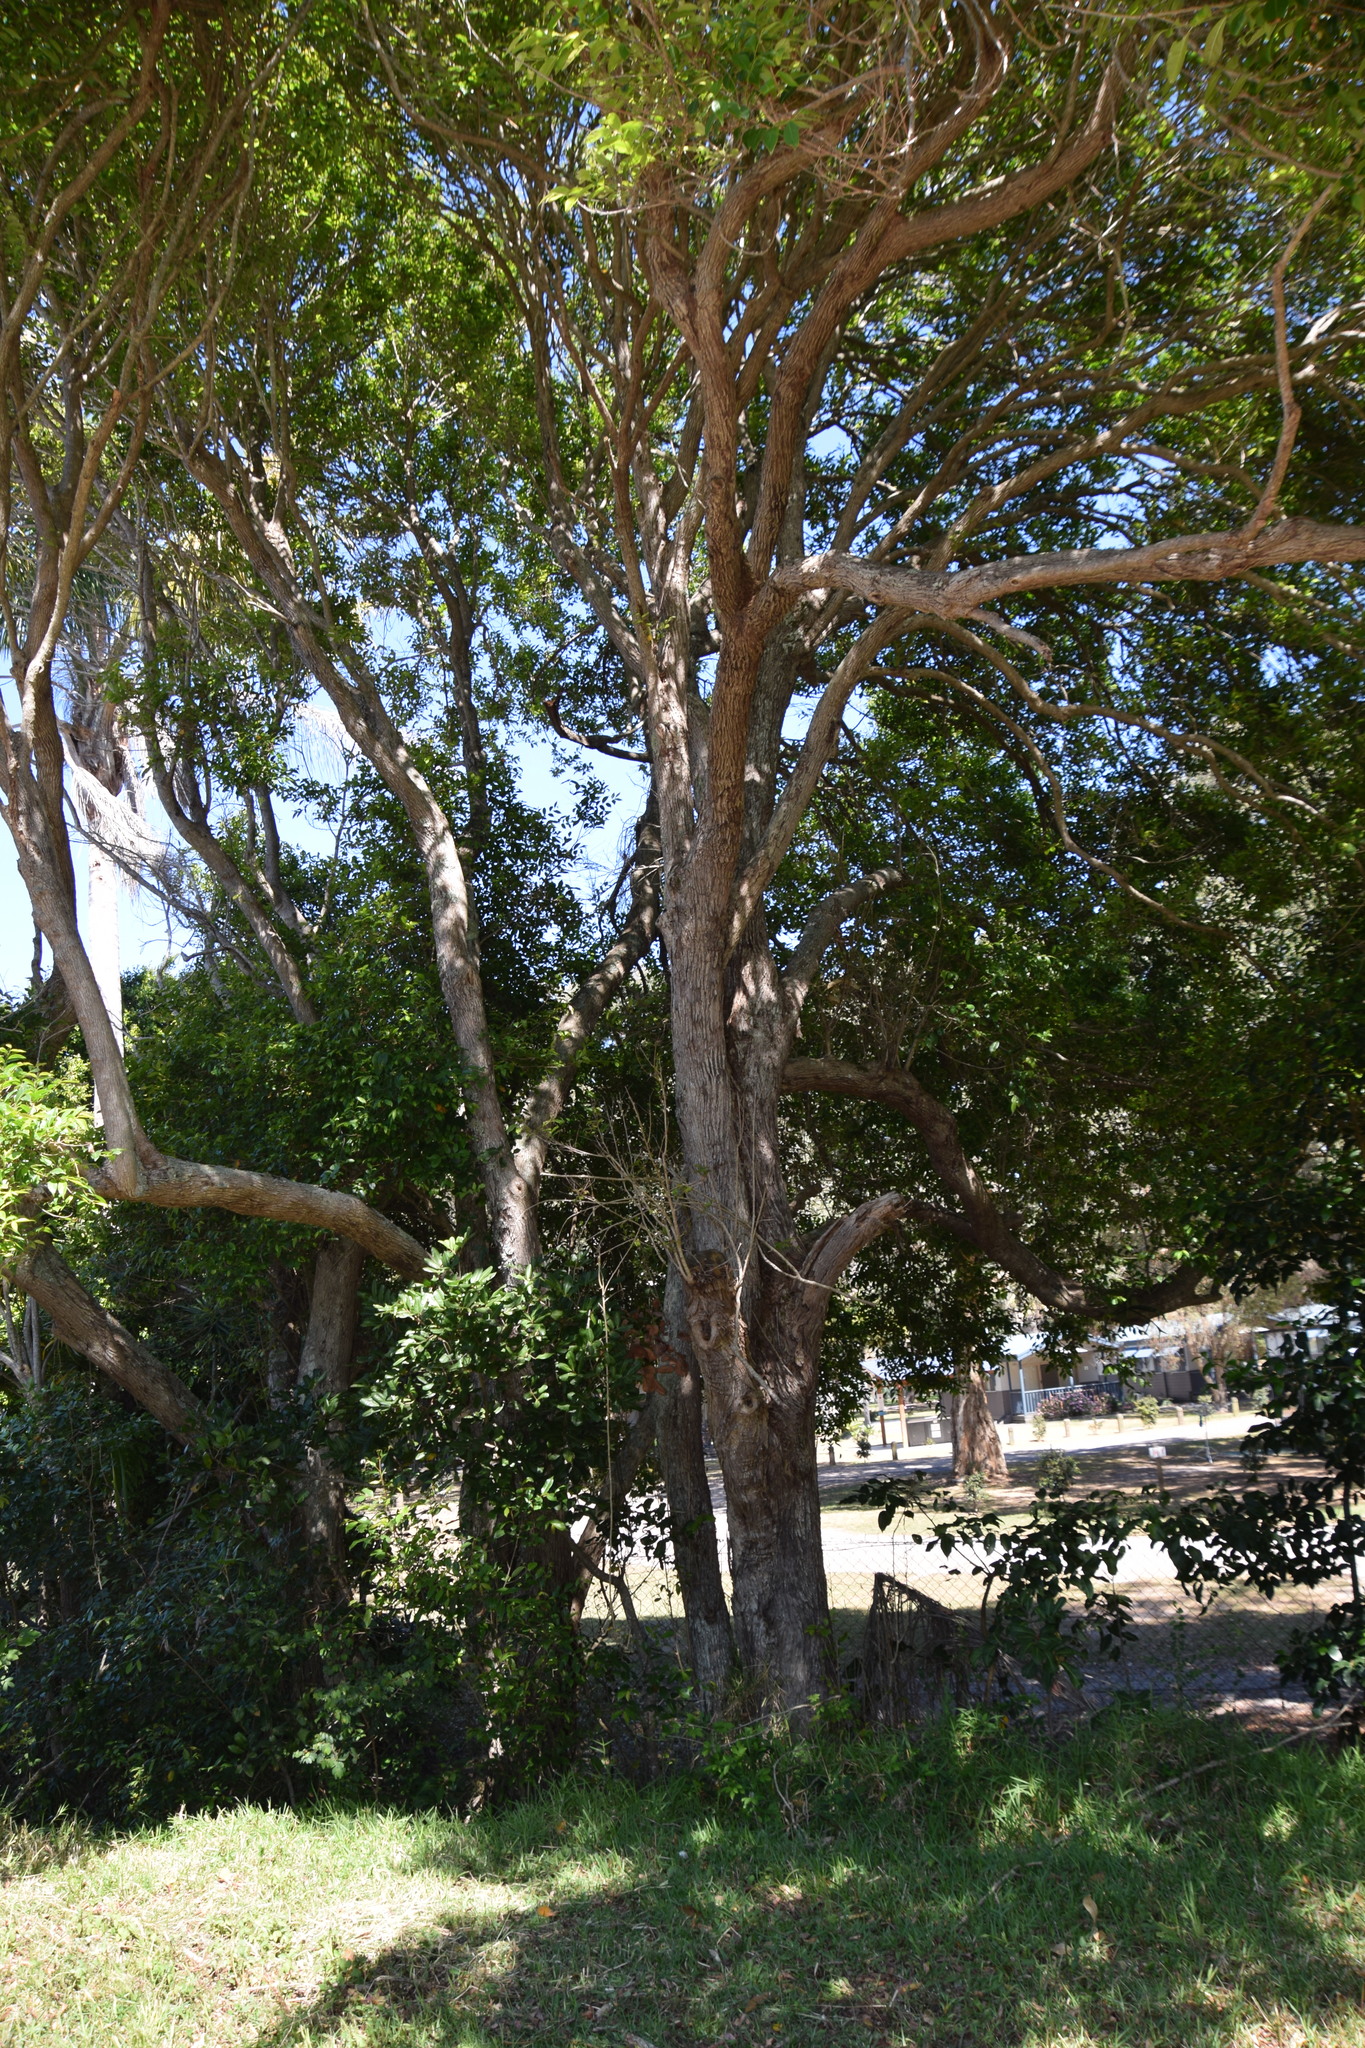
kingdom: Plantae
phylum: Tracheophyta
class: Magnoliopsida
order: Malpighiales
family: Phyllanthaceae
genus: Glochidion
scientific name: Glochidion ferdinandi
